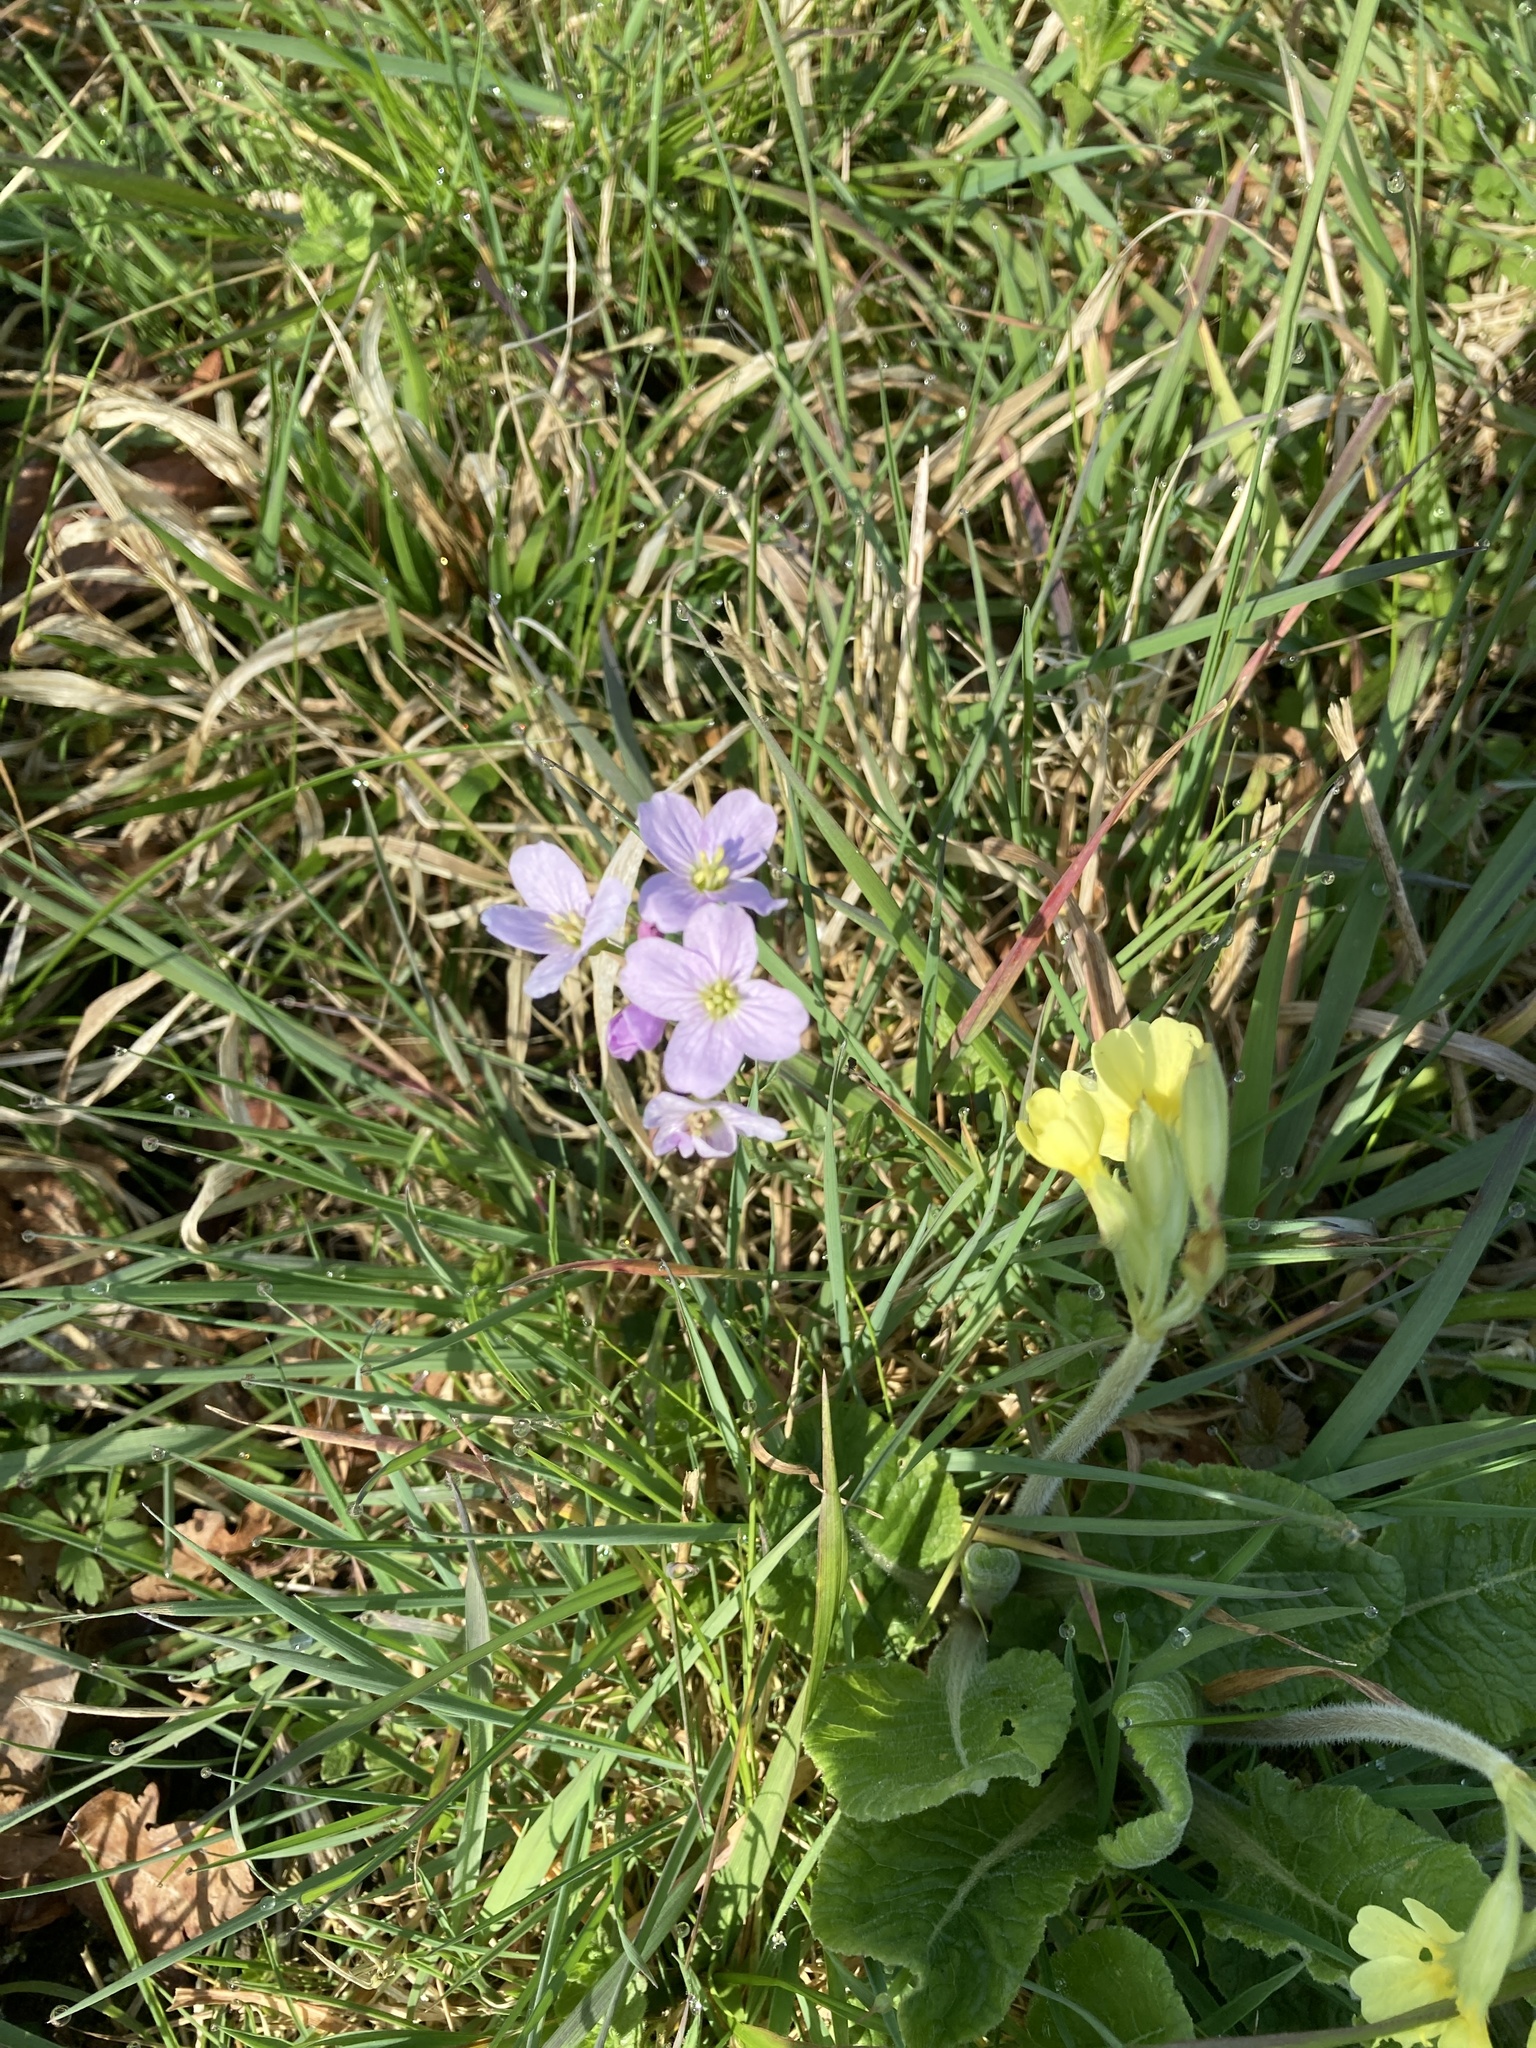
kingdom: Plantae
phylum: Tracheophyta
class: Magnoliopsida
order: Brassicales
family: Brassicaceae
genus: Cardamine
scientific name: Cardamine pratensis
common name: Cuckoo flower
